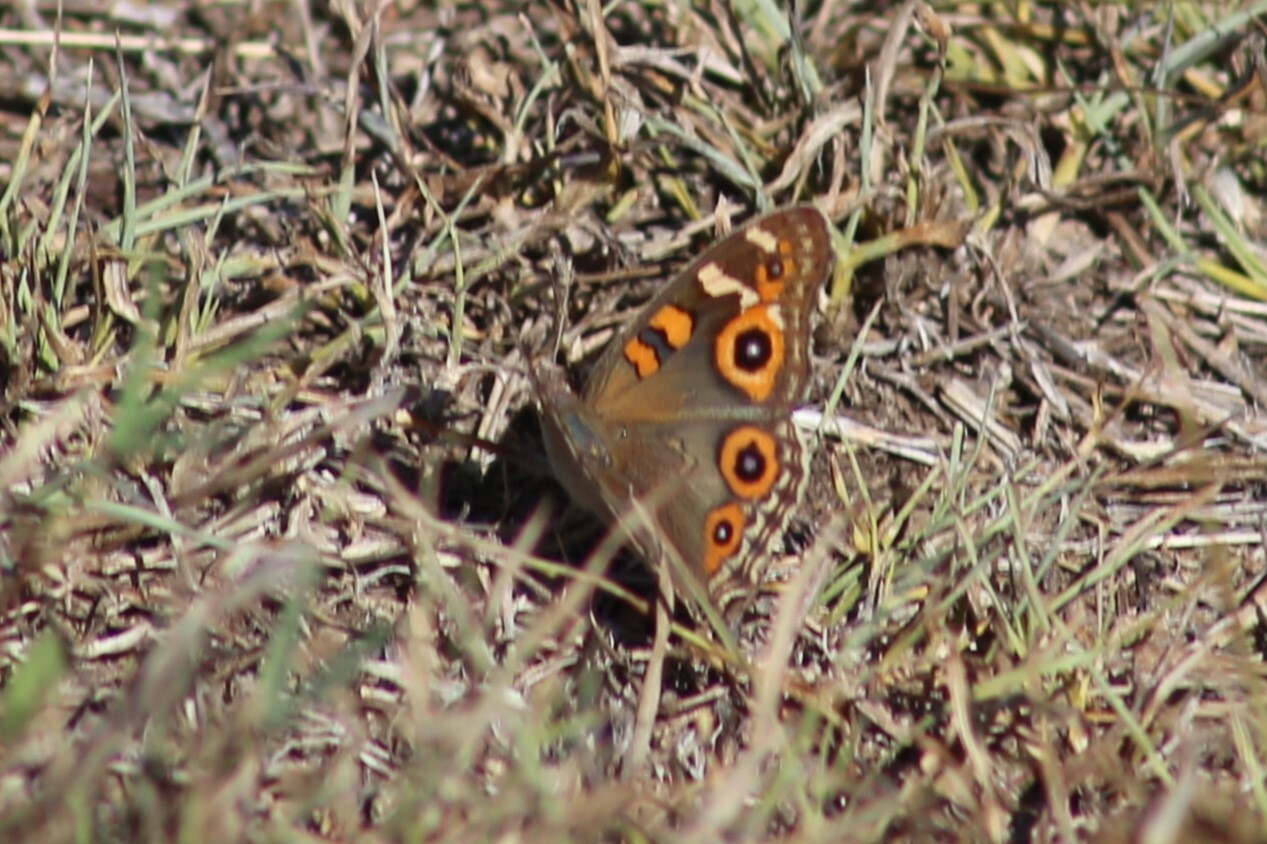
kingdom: Animalia
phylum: Arthropoda
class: Insecta
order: Lepidoptera
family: Nymphalidae
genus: Junonia
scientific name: Junonia villida
